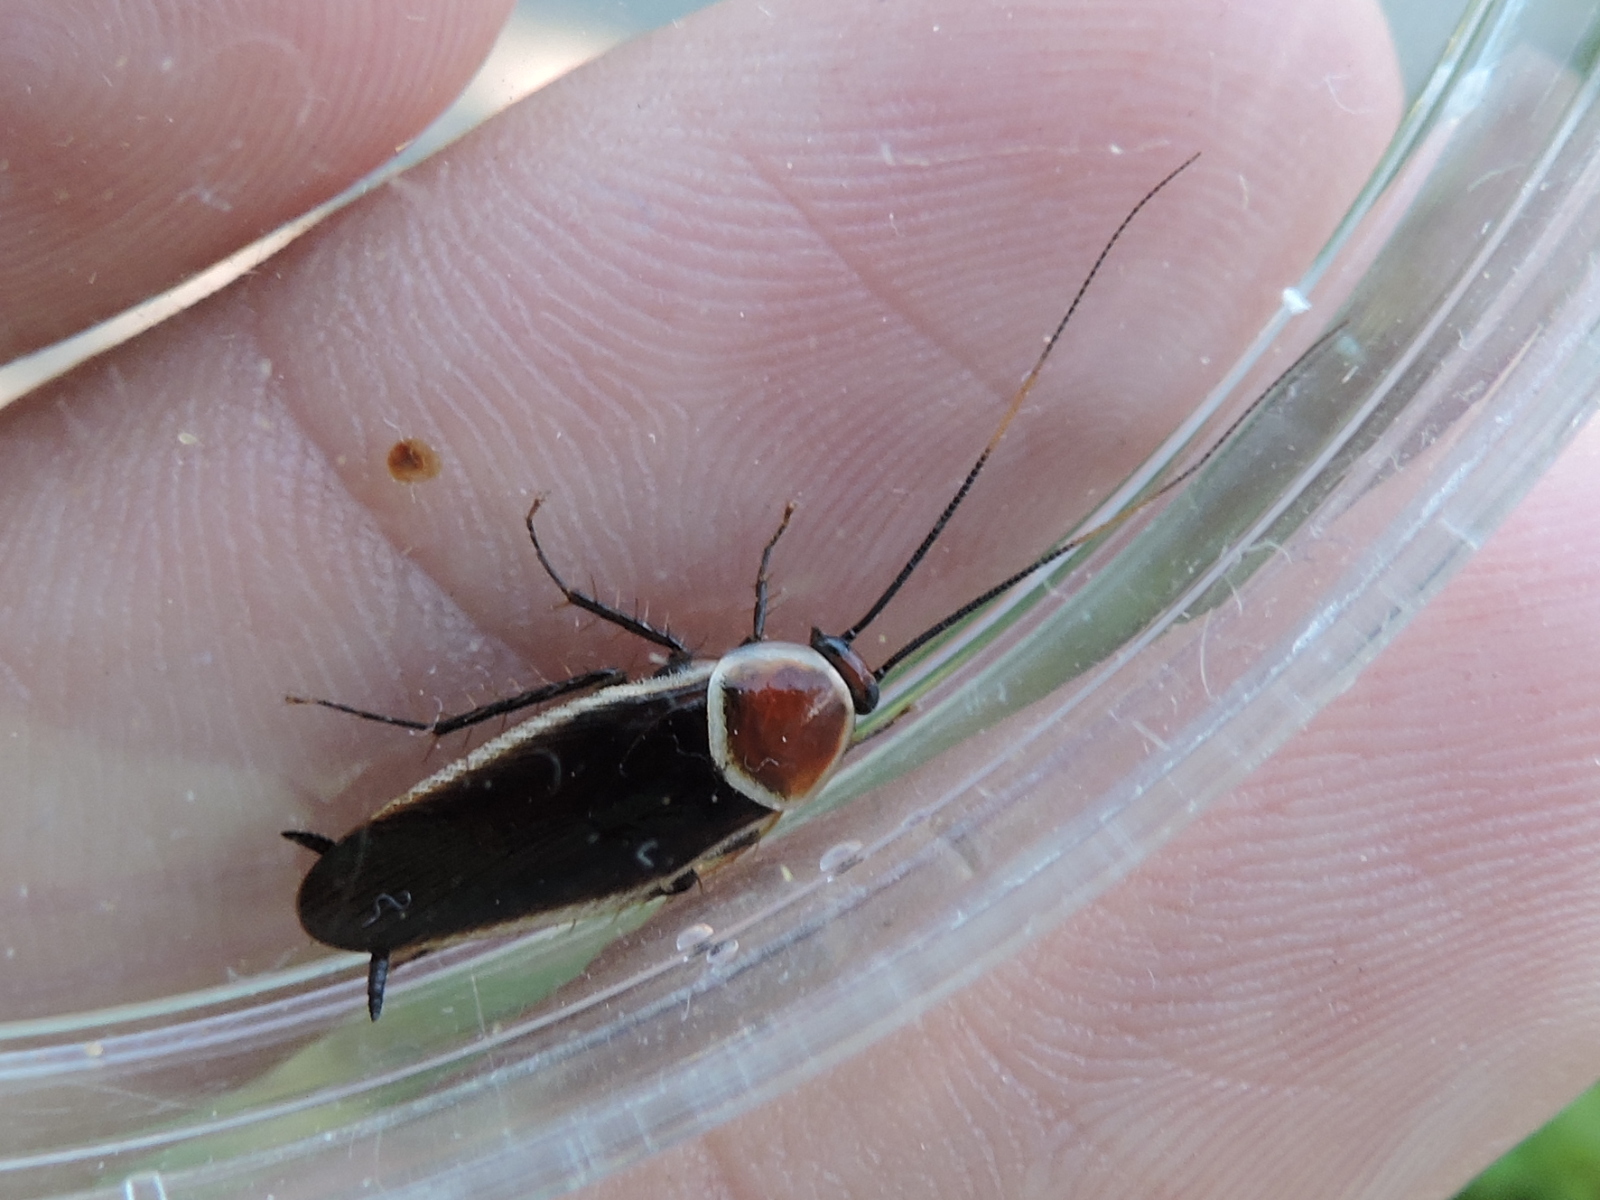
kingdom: Animalia
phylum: Arthropoda
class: Insecta
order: Blattodea
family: Ectobiidae
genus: Pseudomops
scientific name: Pseudomops septentrionalis
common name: Pale-bordered field cockroach
